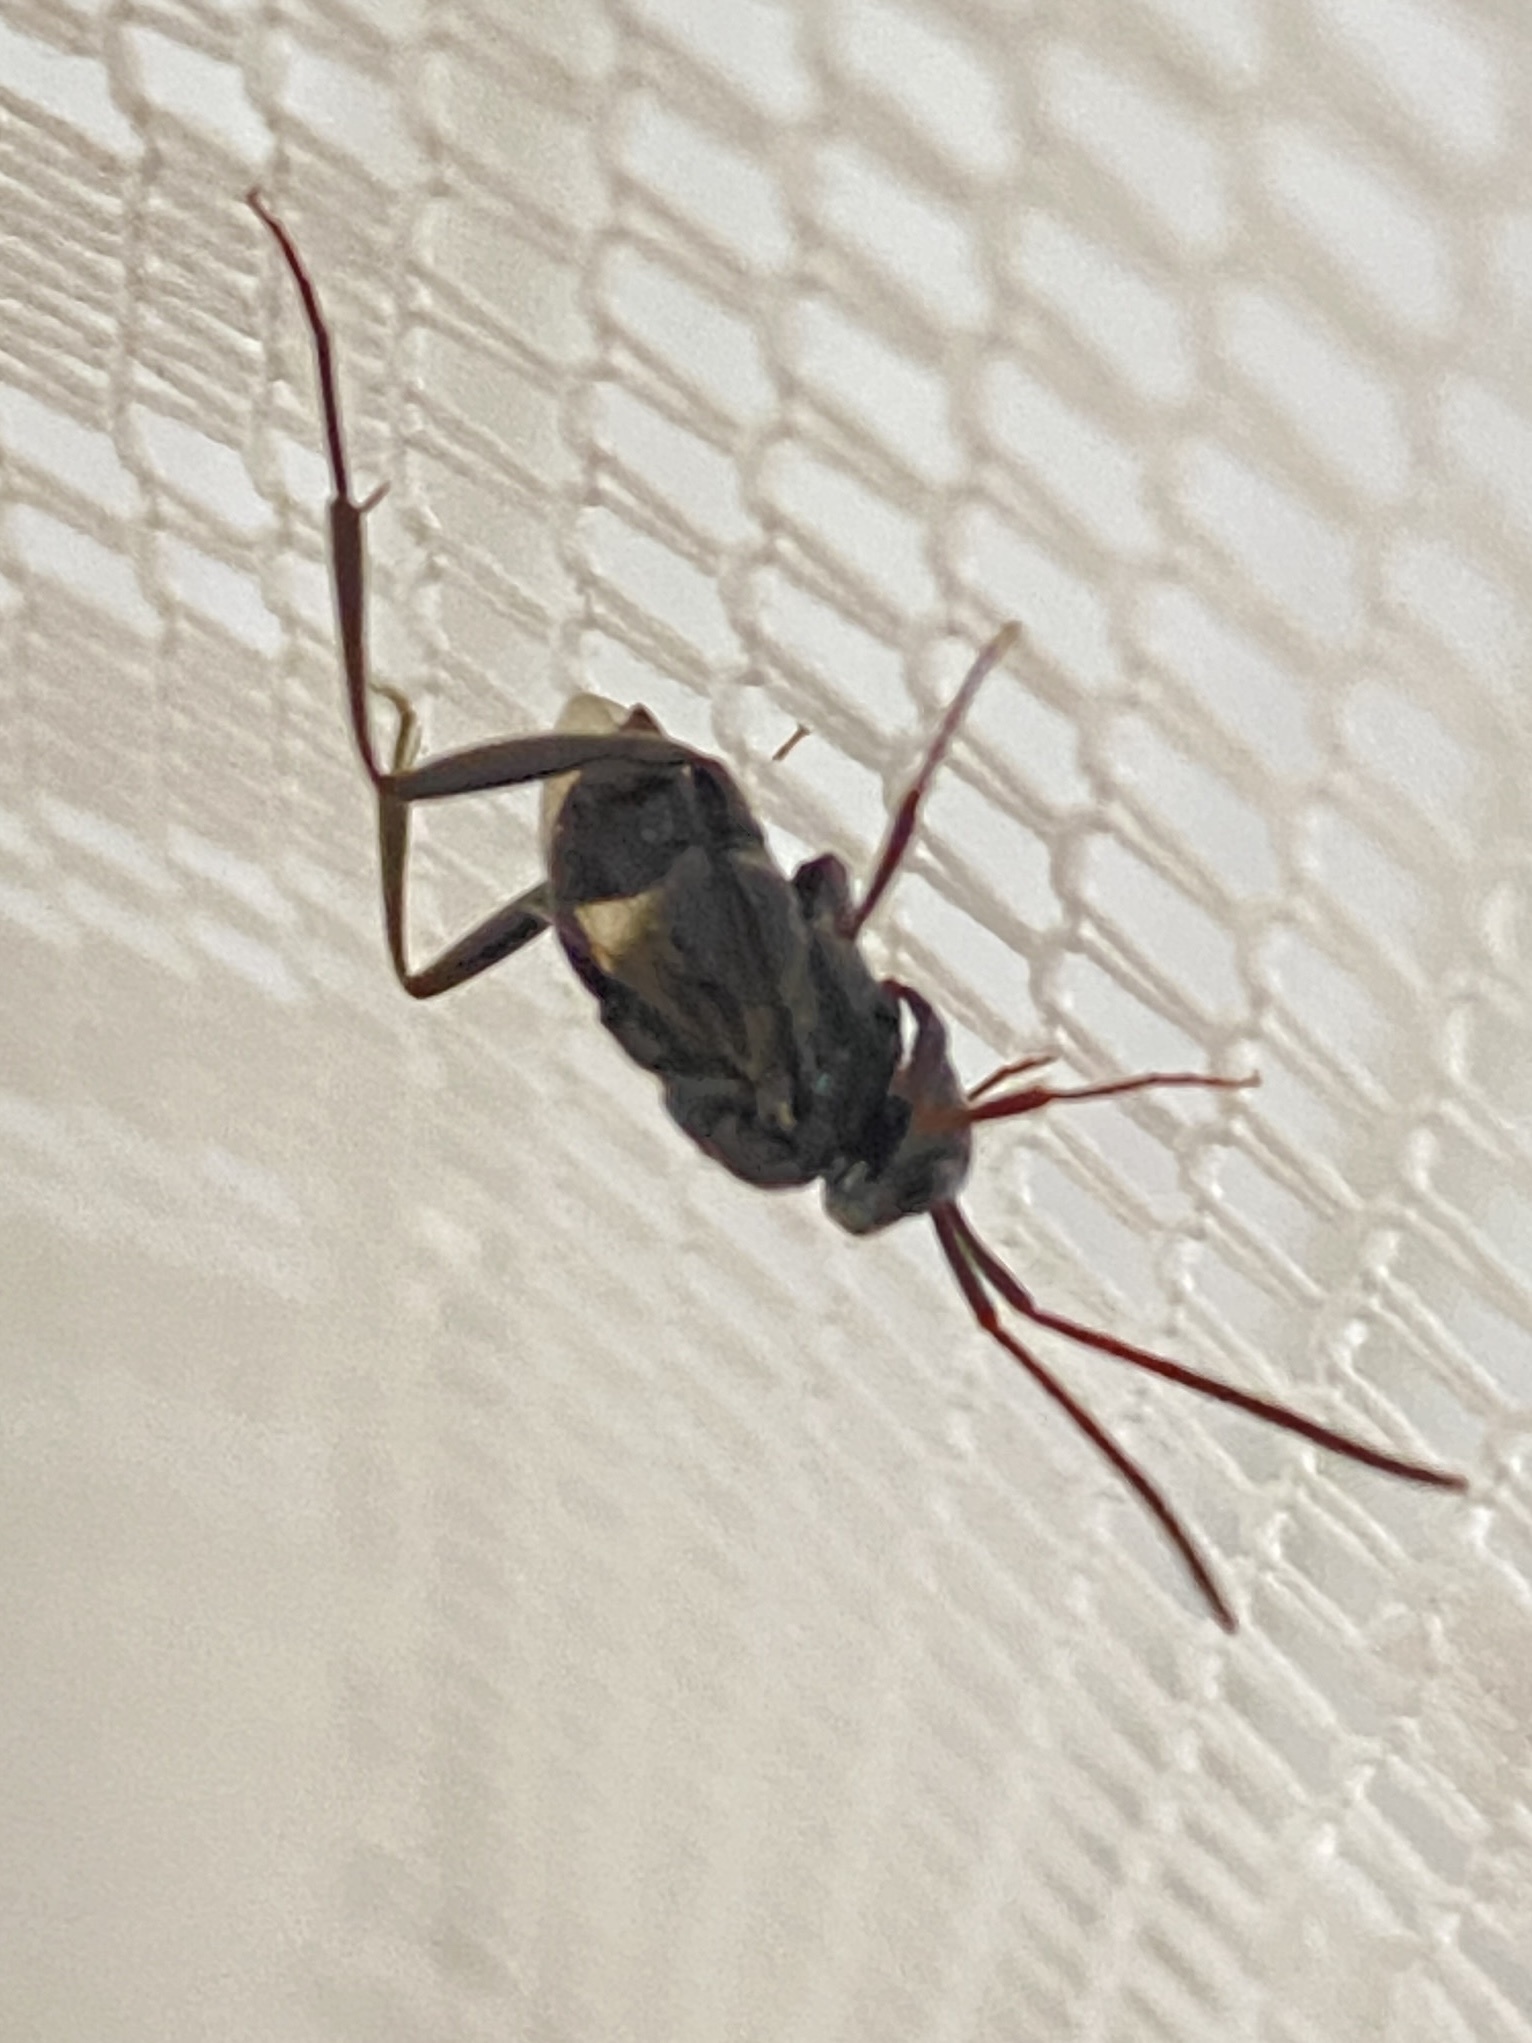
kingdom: Animalia
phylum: Arthropoda
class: Insecta
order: Hymenoptera
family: Evaniidae
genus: Prosevania
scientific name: Prosevania fuscipes
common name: Ensign wasp
